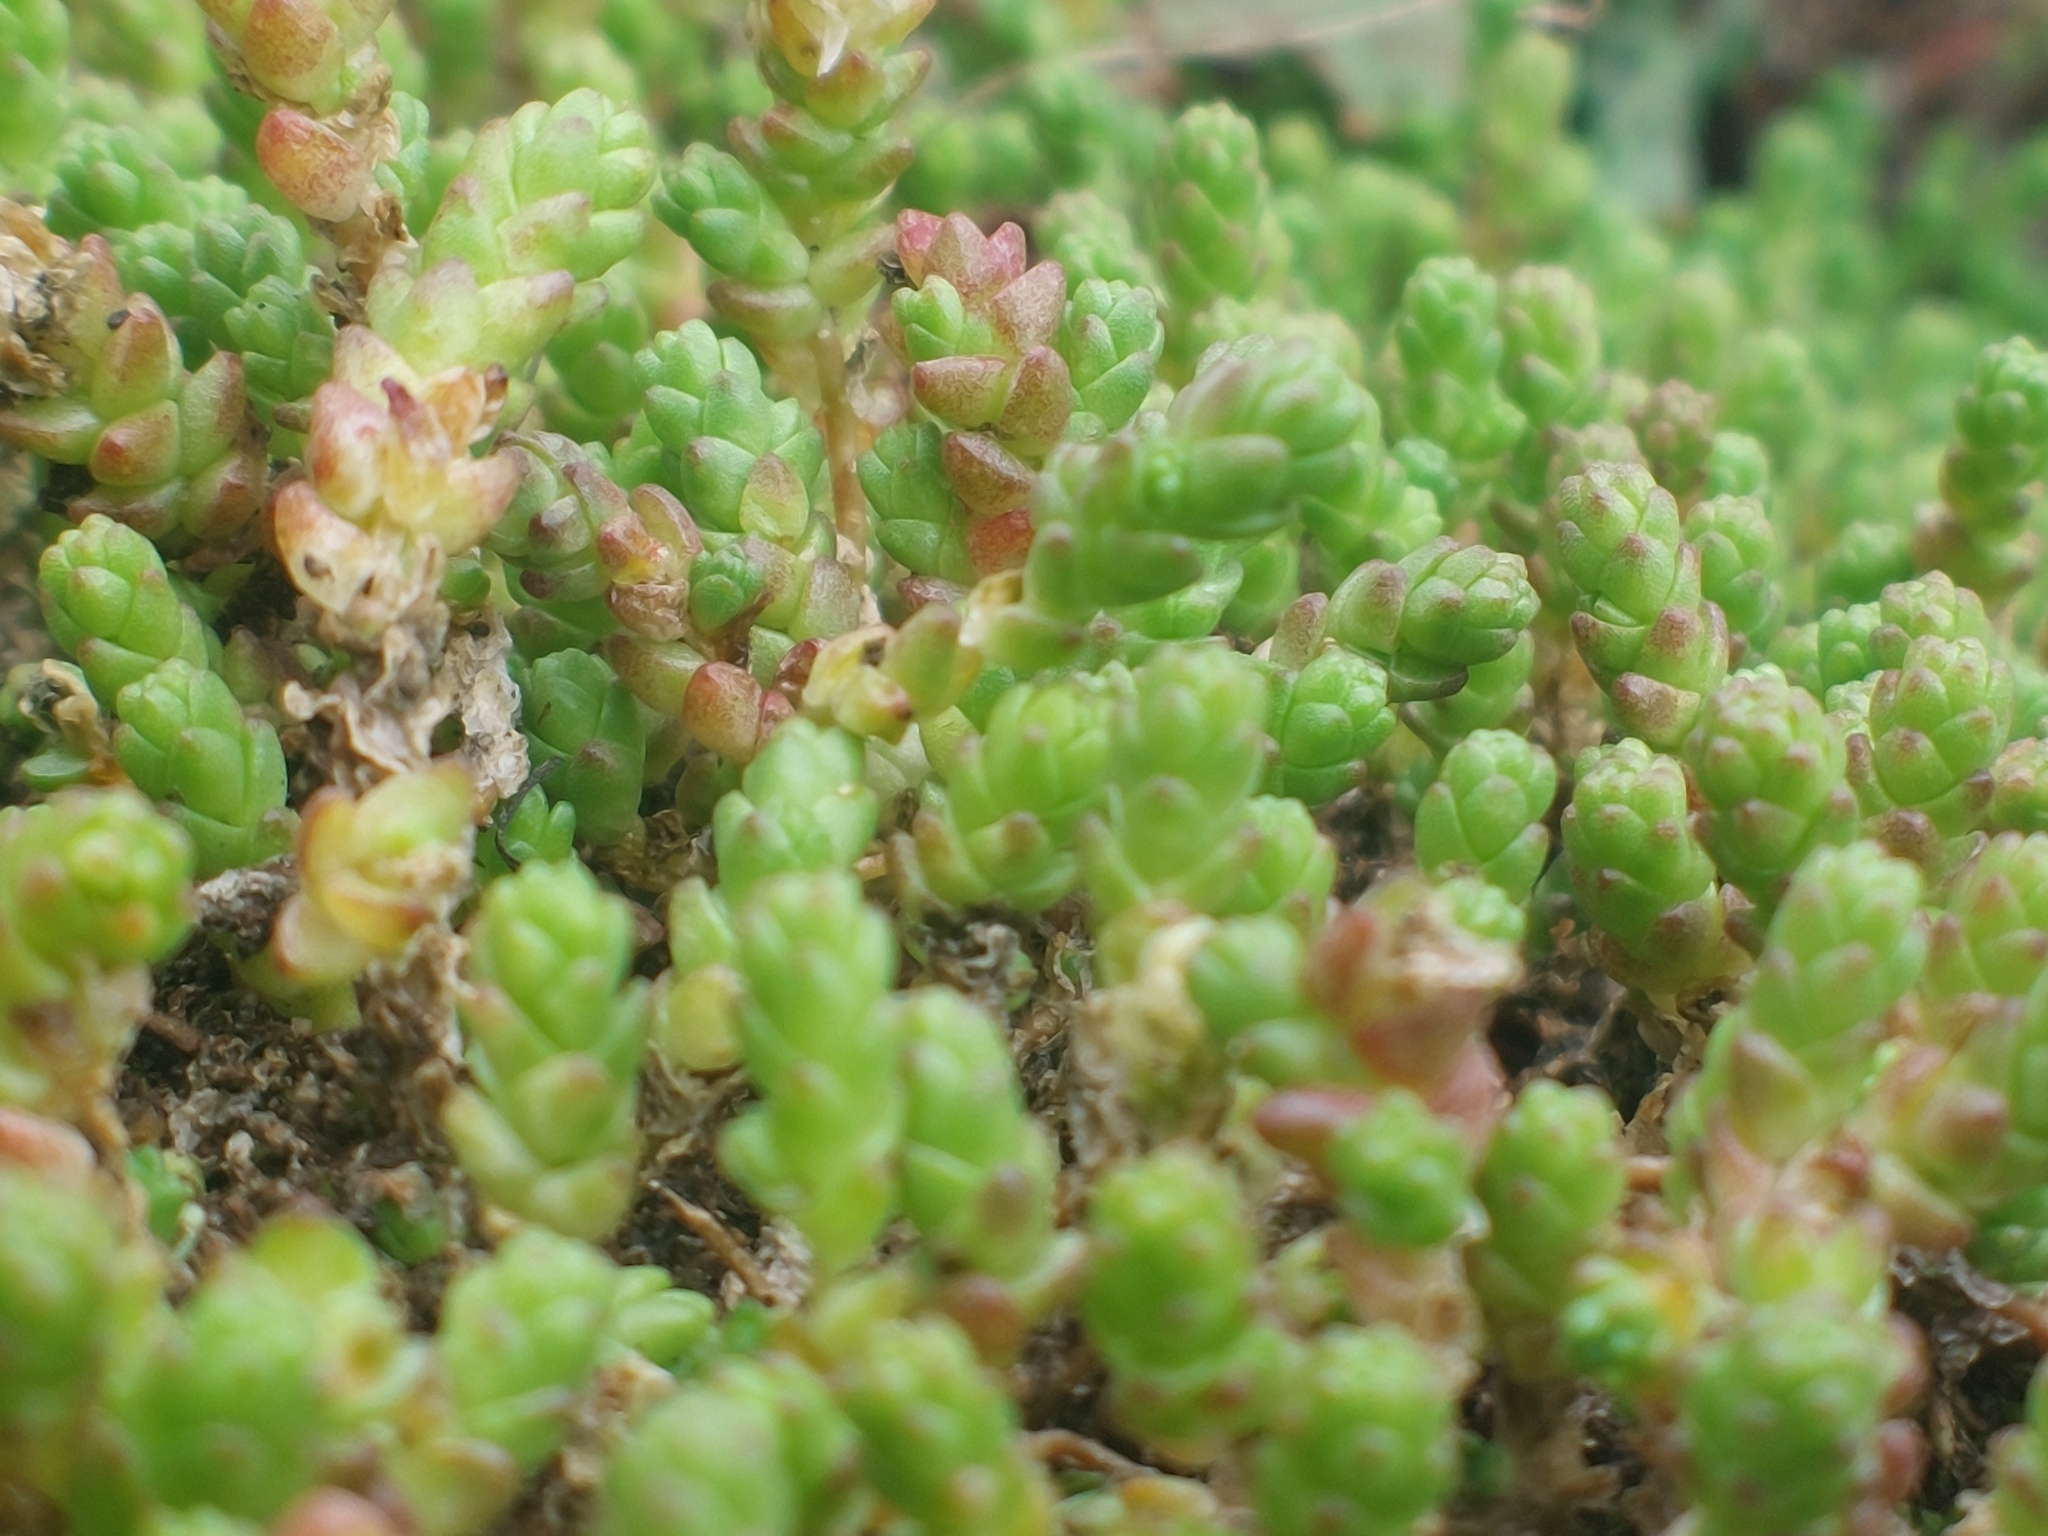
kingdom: Plantae
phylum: Tracheophyta
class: Magnoliopsida
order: Saxifragales
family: Crassulaceae
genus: Sedum
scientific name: Sedum acre
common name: Biting stonecrop
